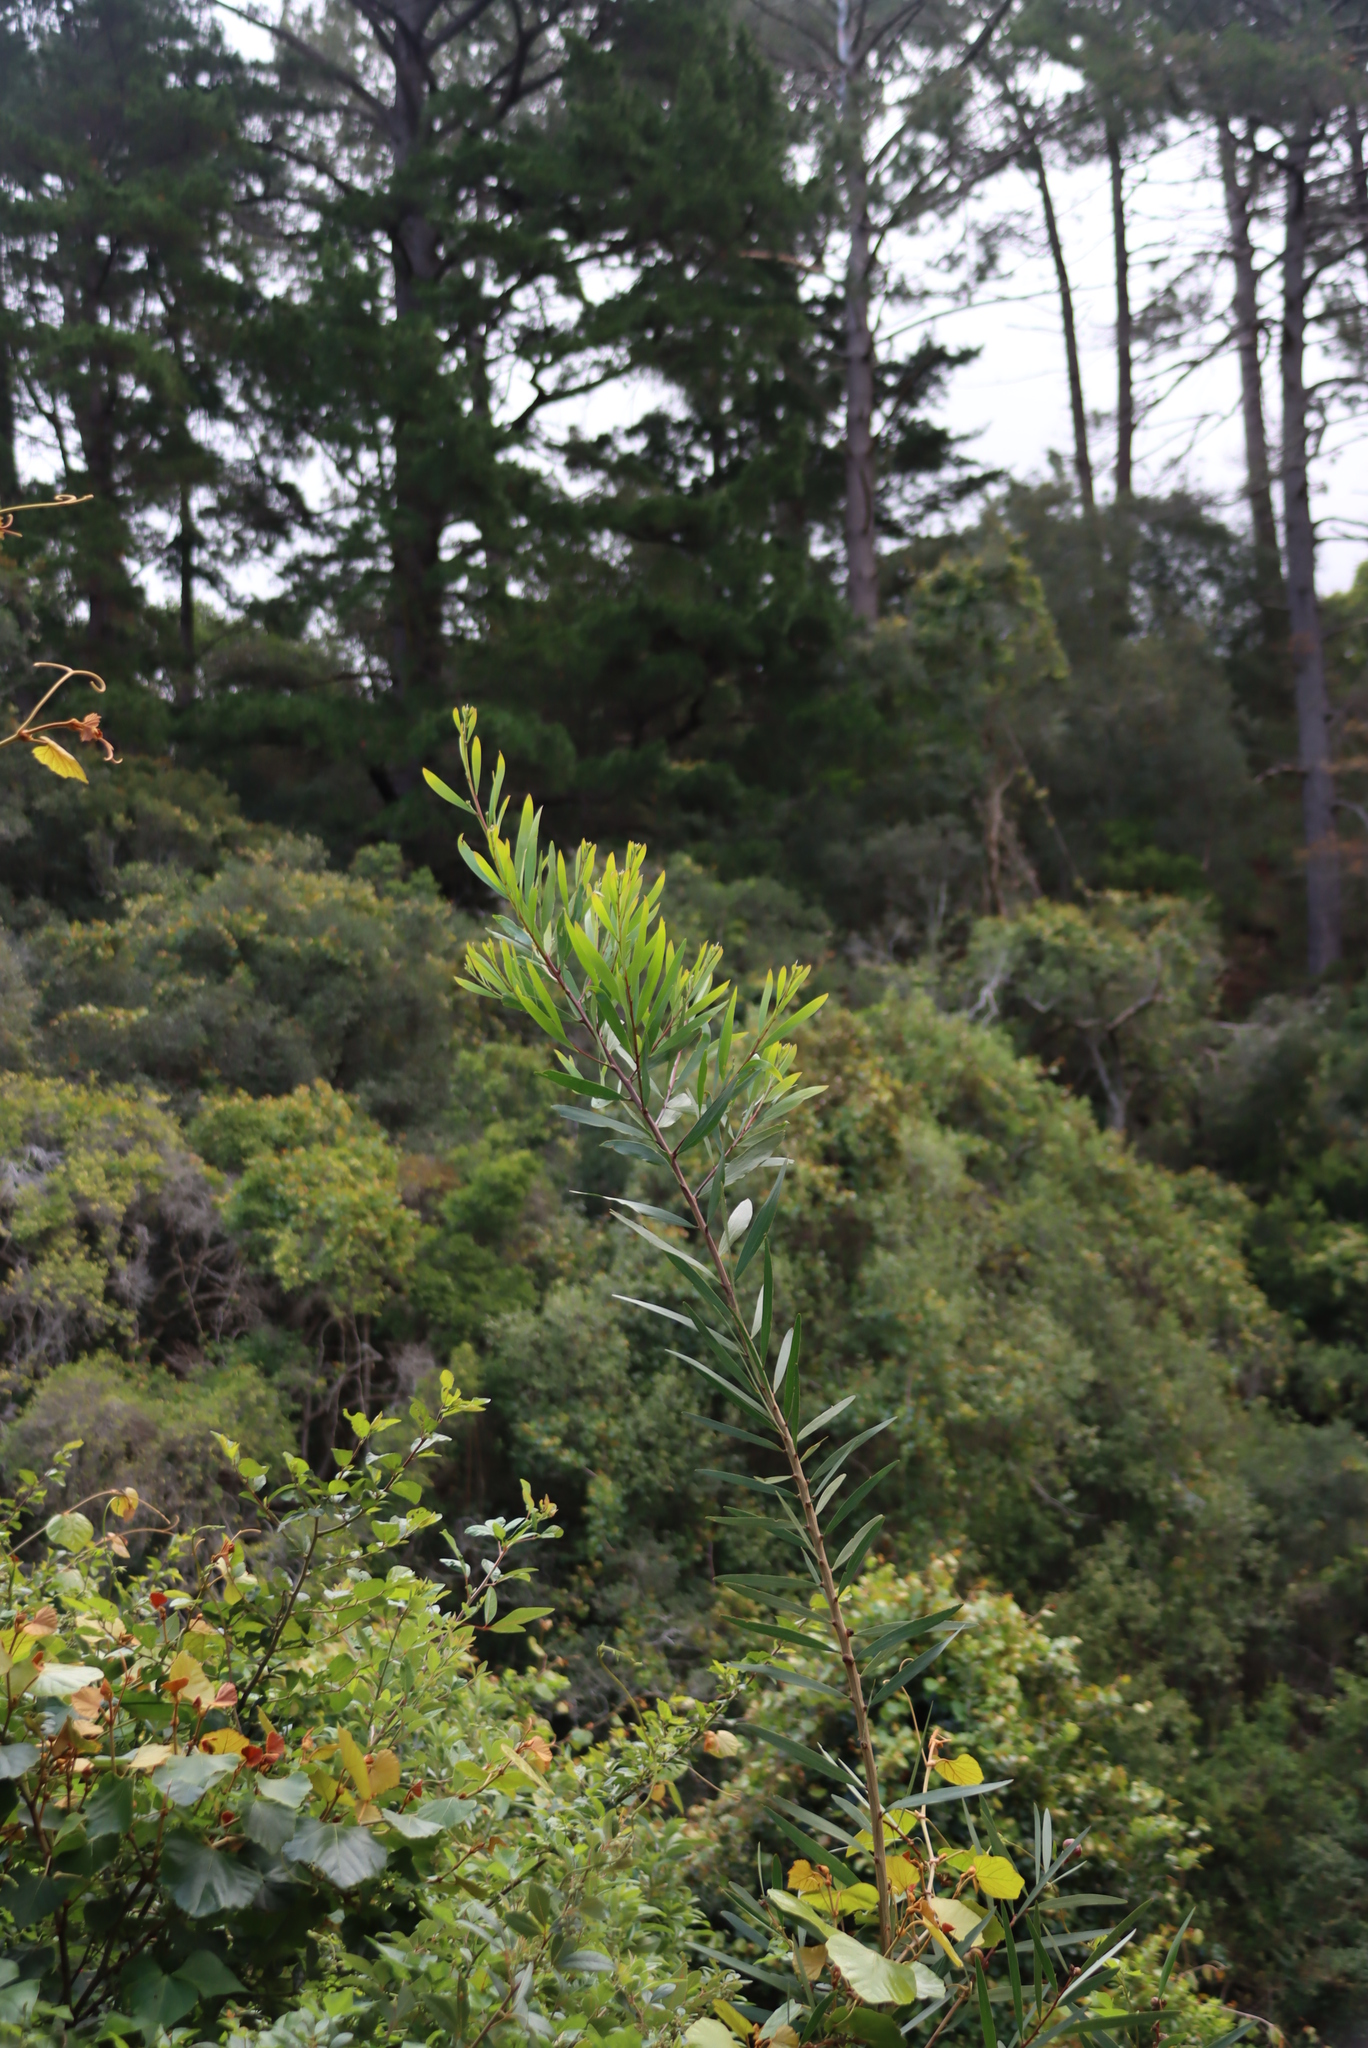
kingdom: Plantae
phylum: Tracheophyta
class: Magnoliopsida
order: Fabales
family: Fabaceae
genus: Acacia
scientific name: Acacia longifolia
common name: Sydney golden wattle
